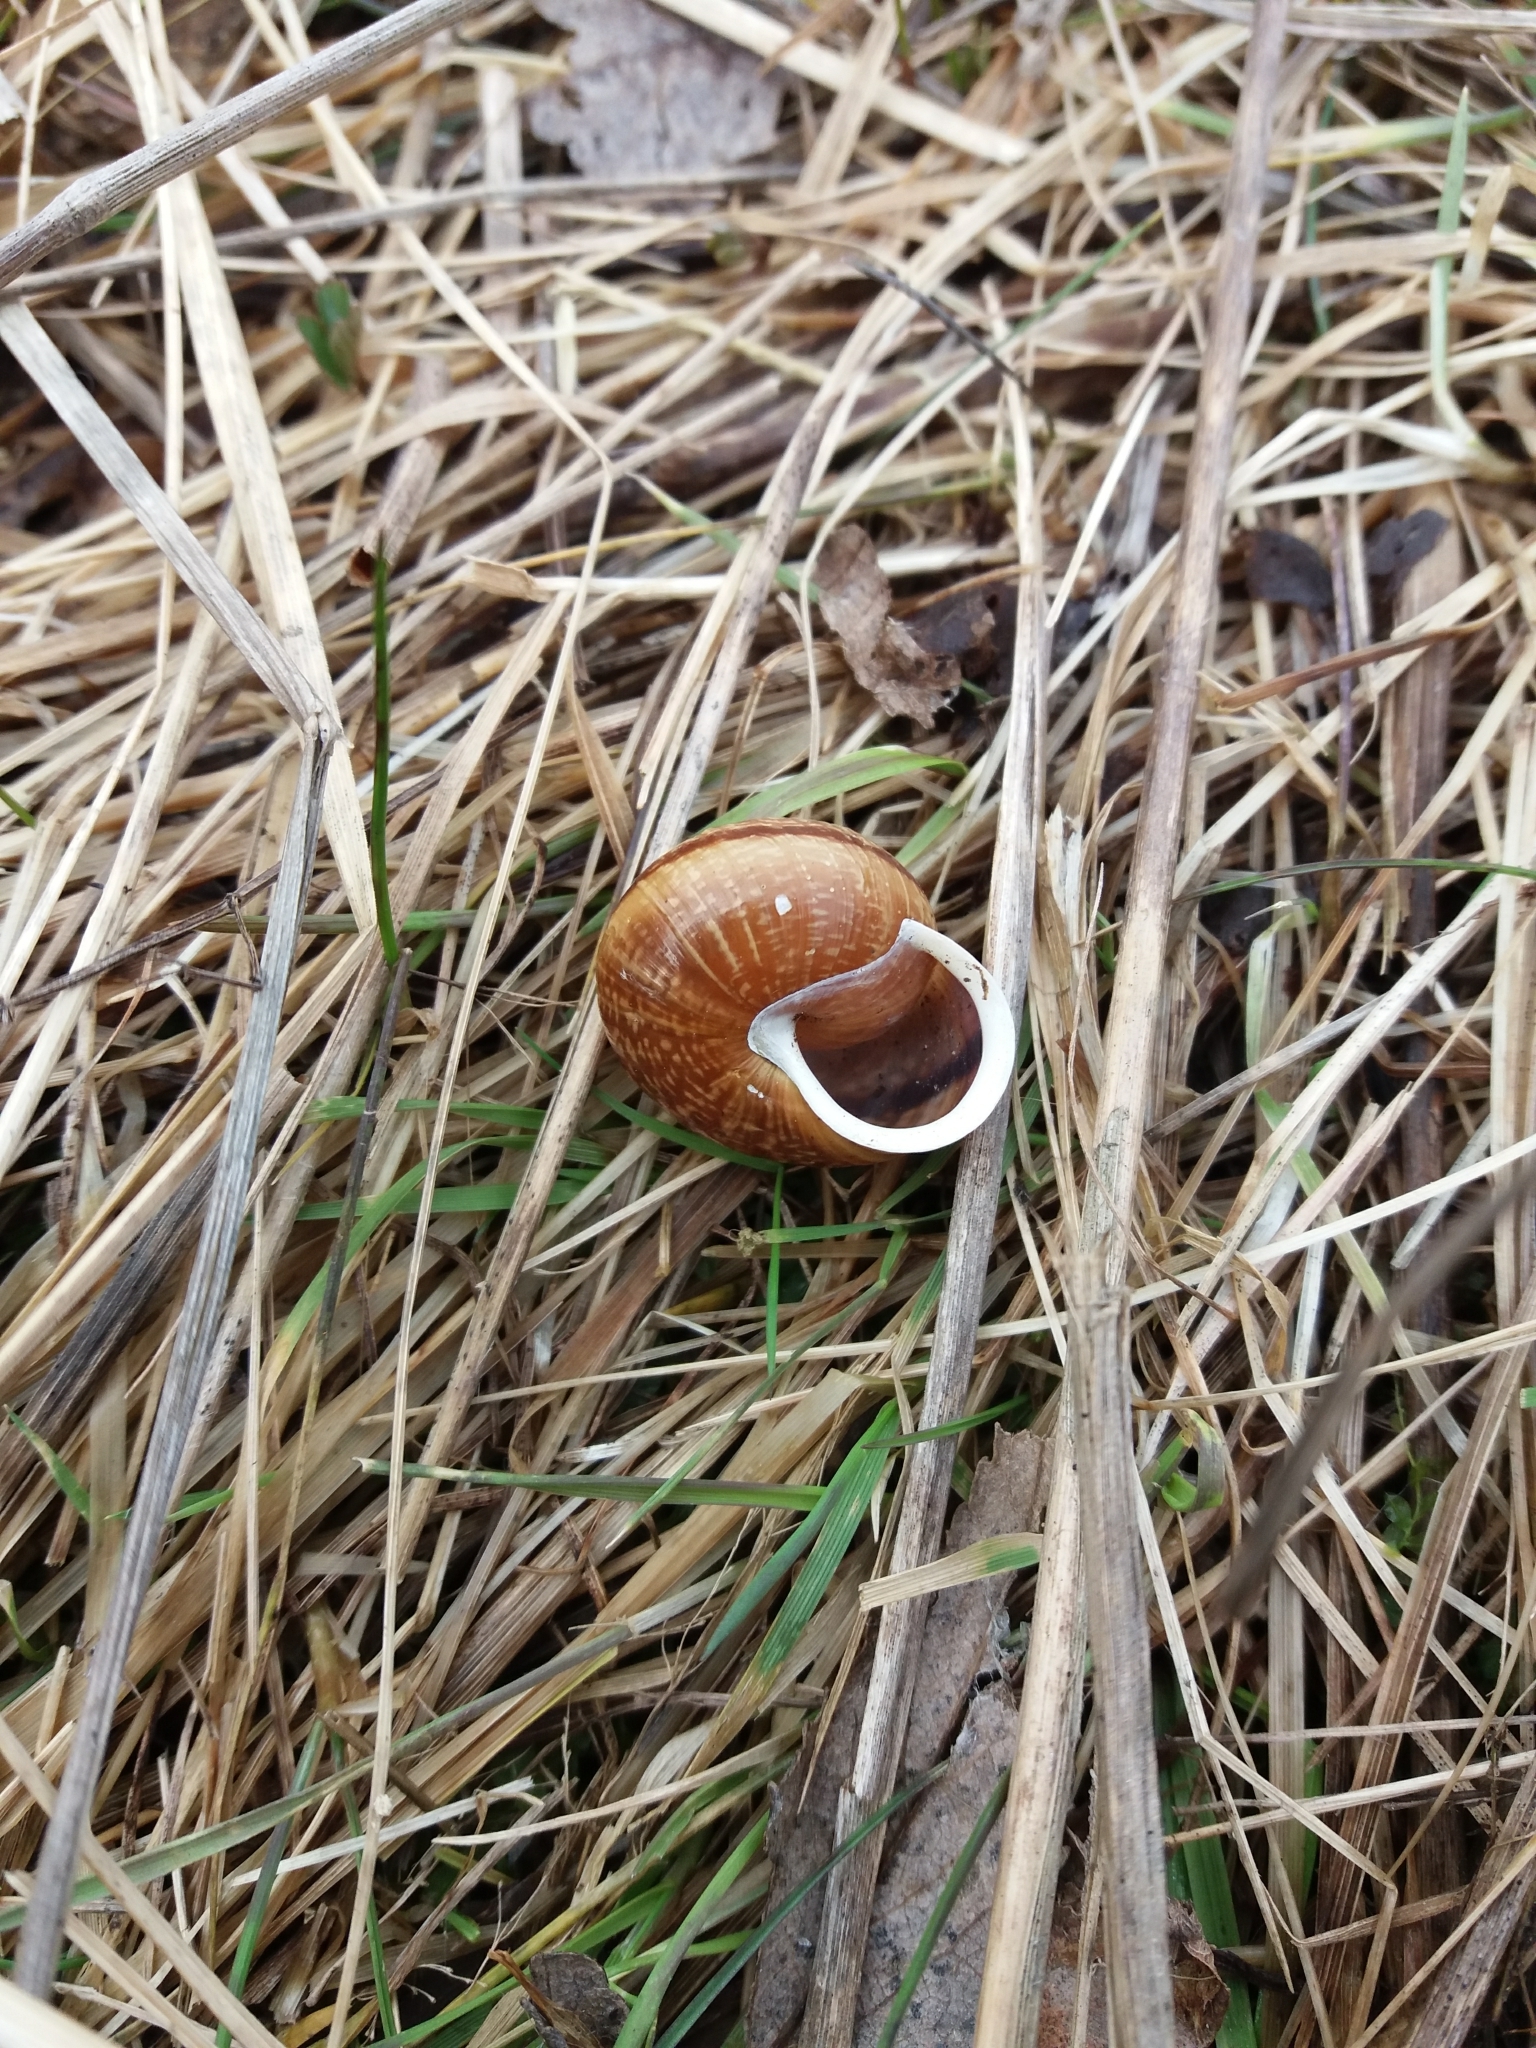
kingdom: Animalia
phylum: Mollusca
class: Gastropoda
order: Stylommatophora
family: Helicidae
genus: Arianta
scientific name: Arianta arbustorum
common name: Copse snail
